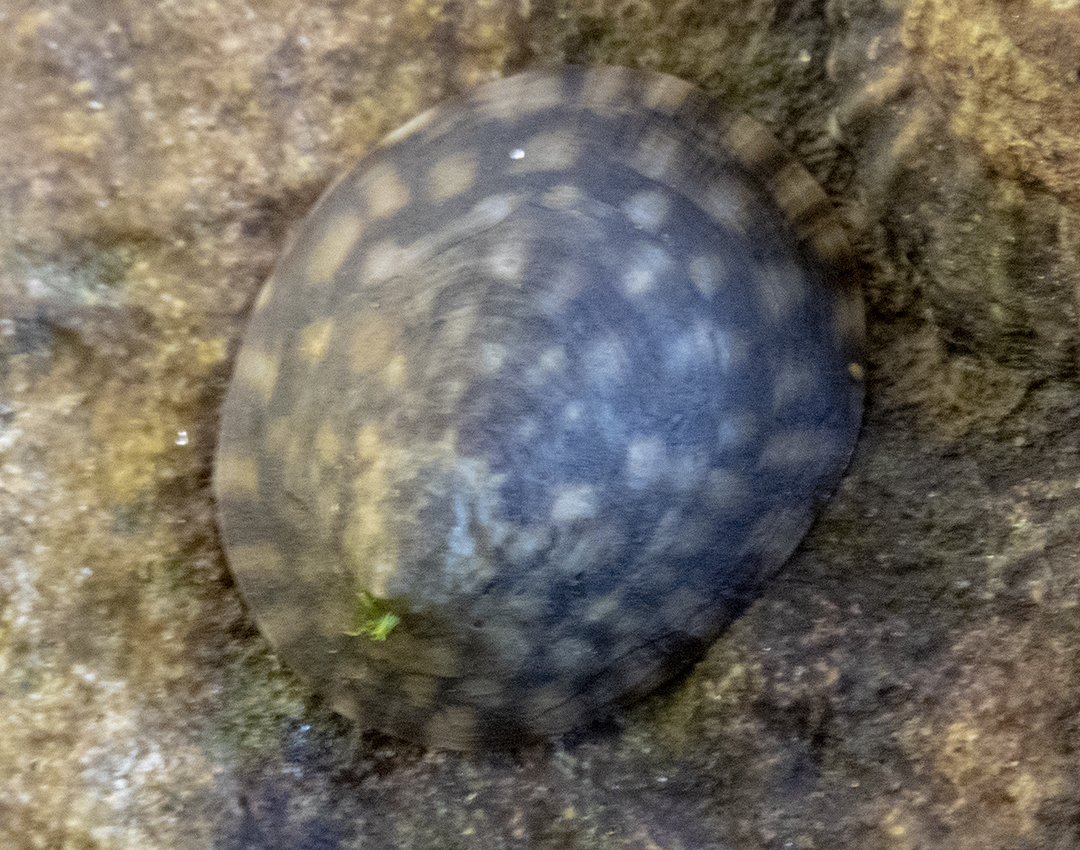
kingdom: Animalia
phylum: Mollusca
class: Gastropoda
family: Lottiidae
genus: Notoacmea
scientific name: Notoacmea pileopsis
